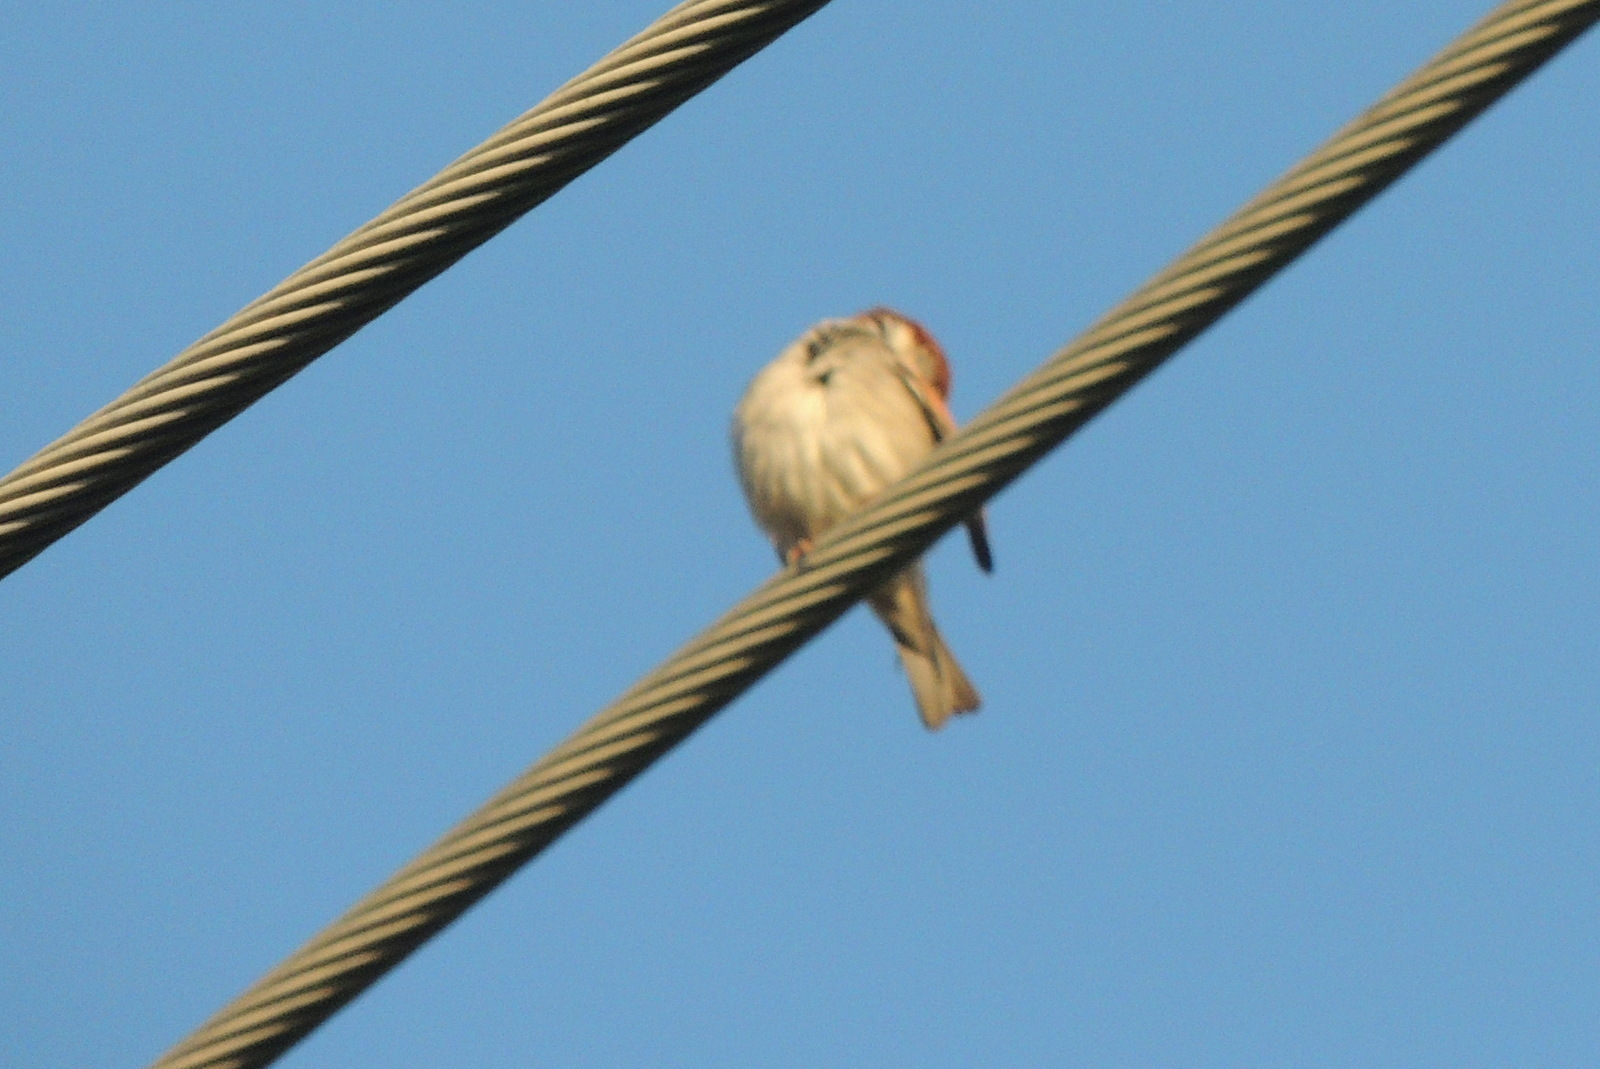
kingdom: Animalia
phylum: Chordata
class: Aves
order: Passeriformes
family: Passeridae
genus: Passer
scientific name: Passer domesticus
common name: House sparrow
